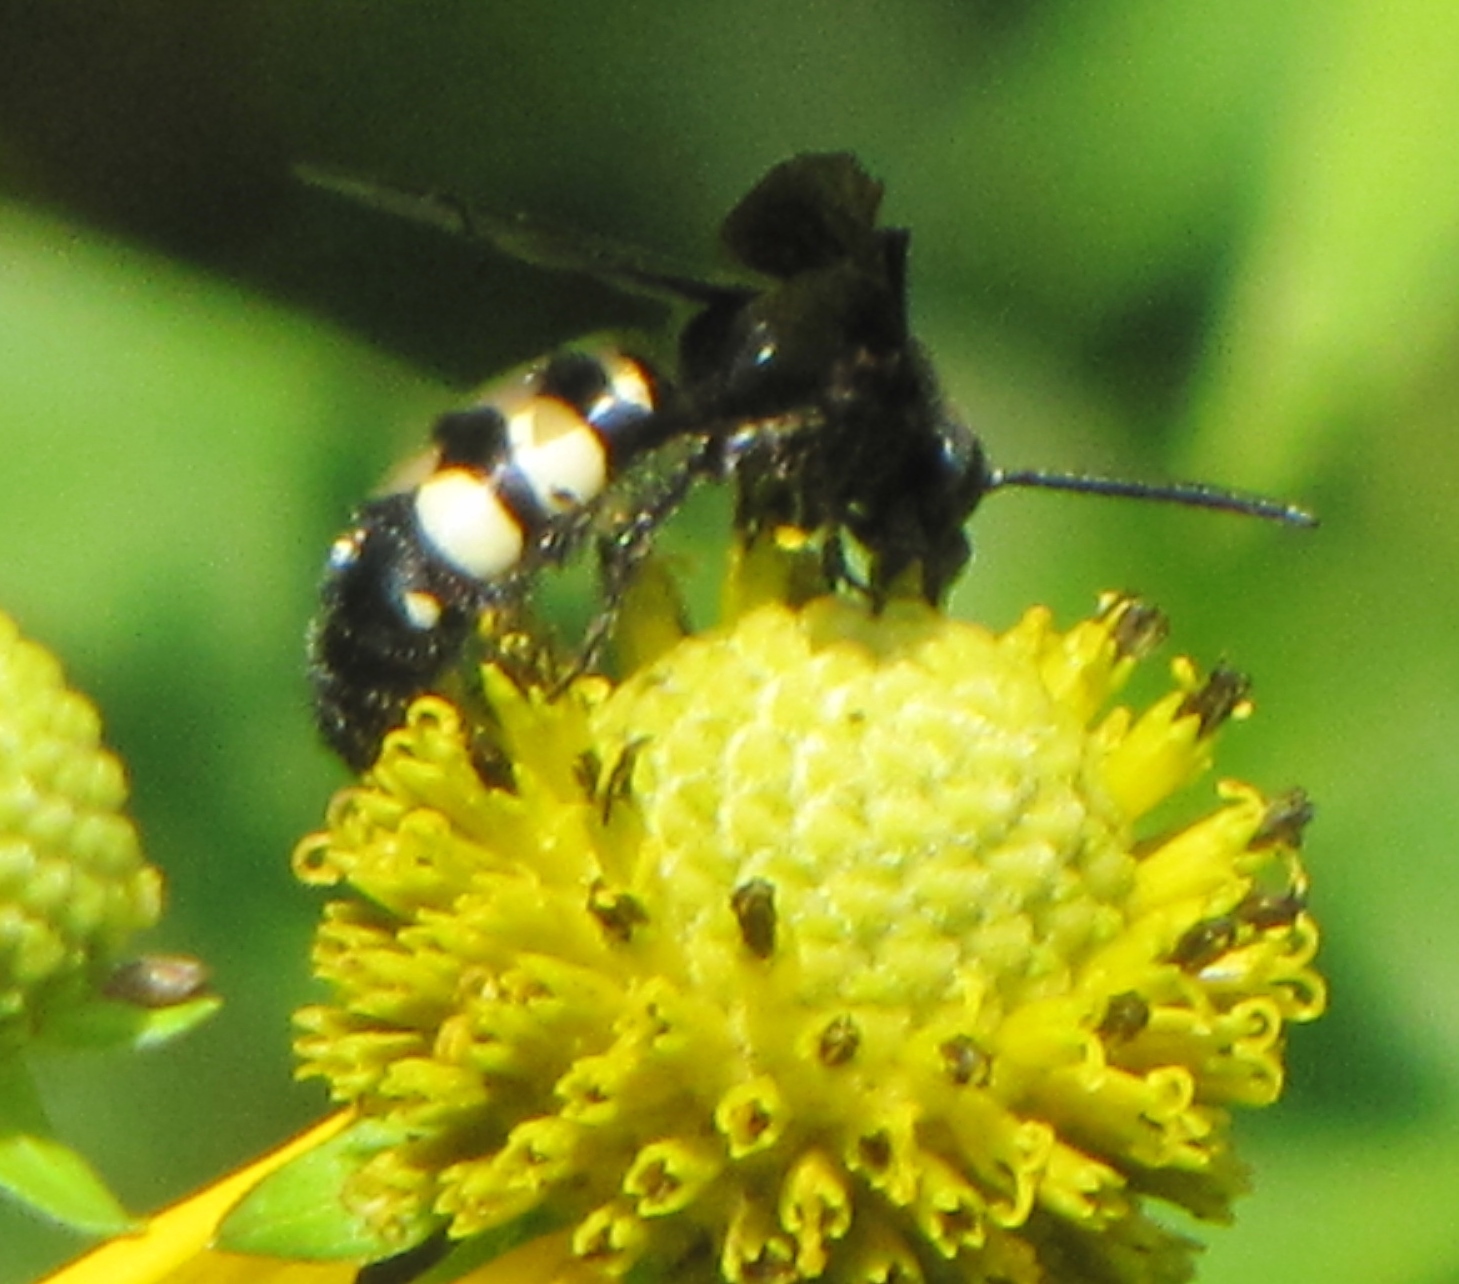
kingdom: Animalia
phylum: Arthropoda
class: Insecta
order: Hymenoptera
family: Scoliidae
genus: Scolia
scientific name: Scolia bicincta
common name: Double-banded scoliid wasp
